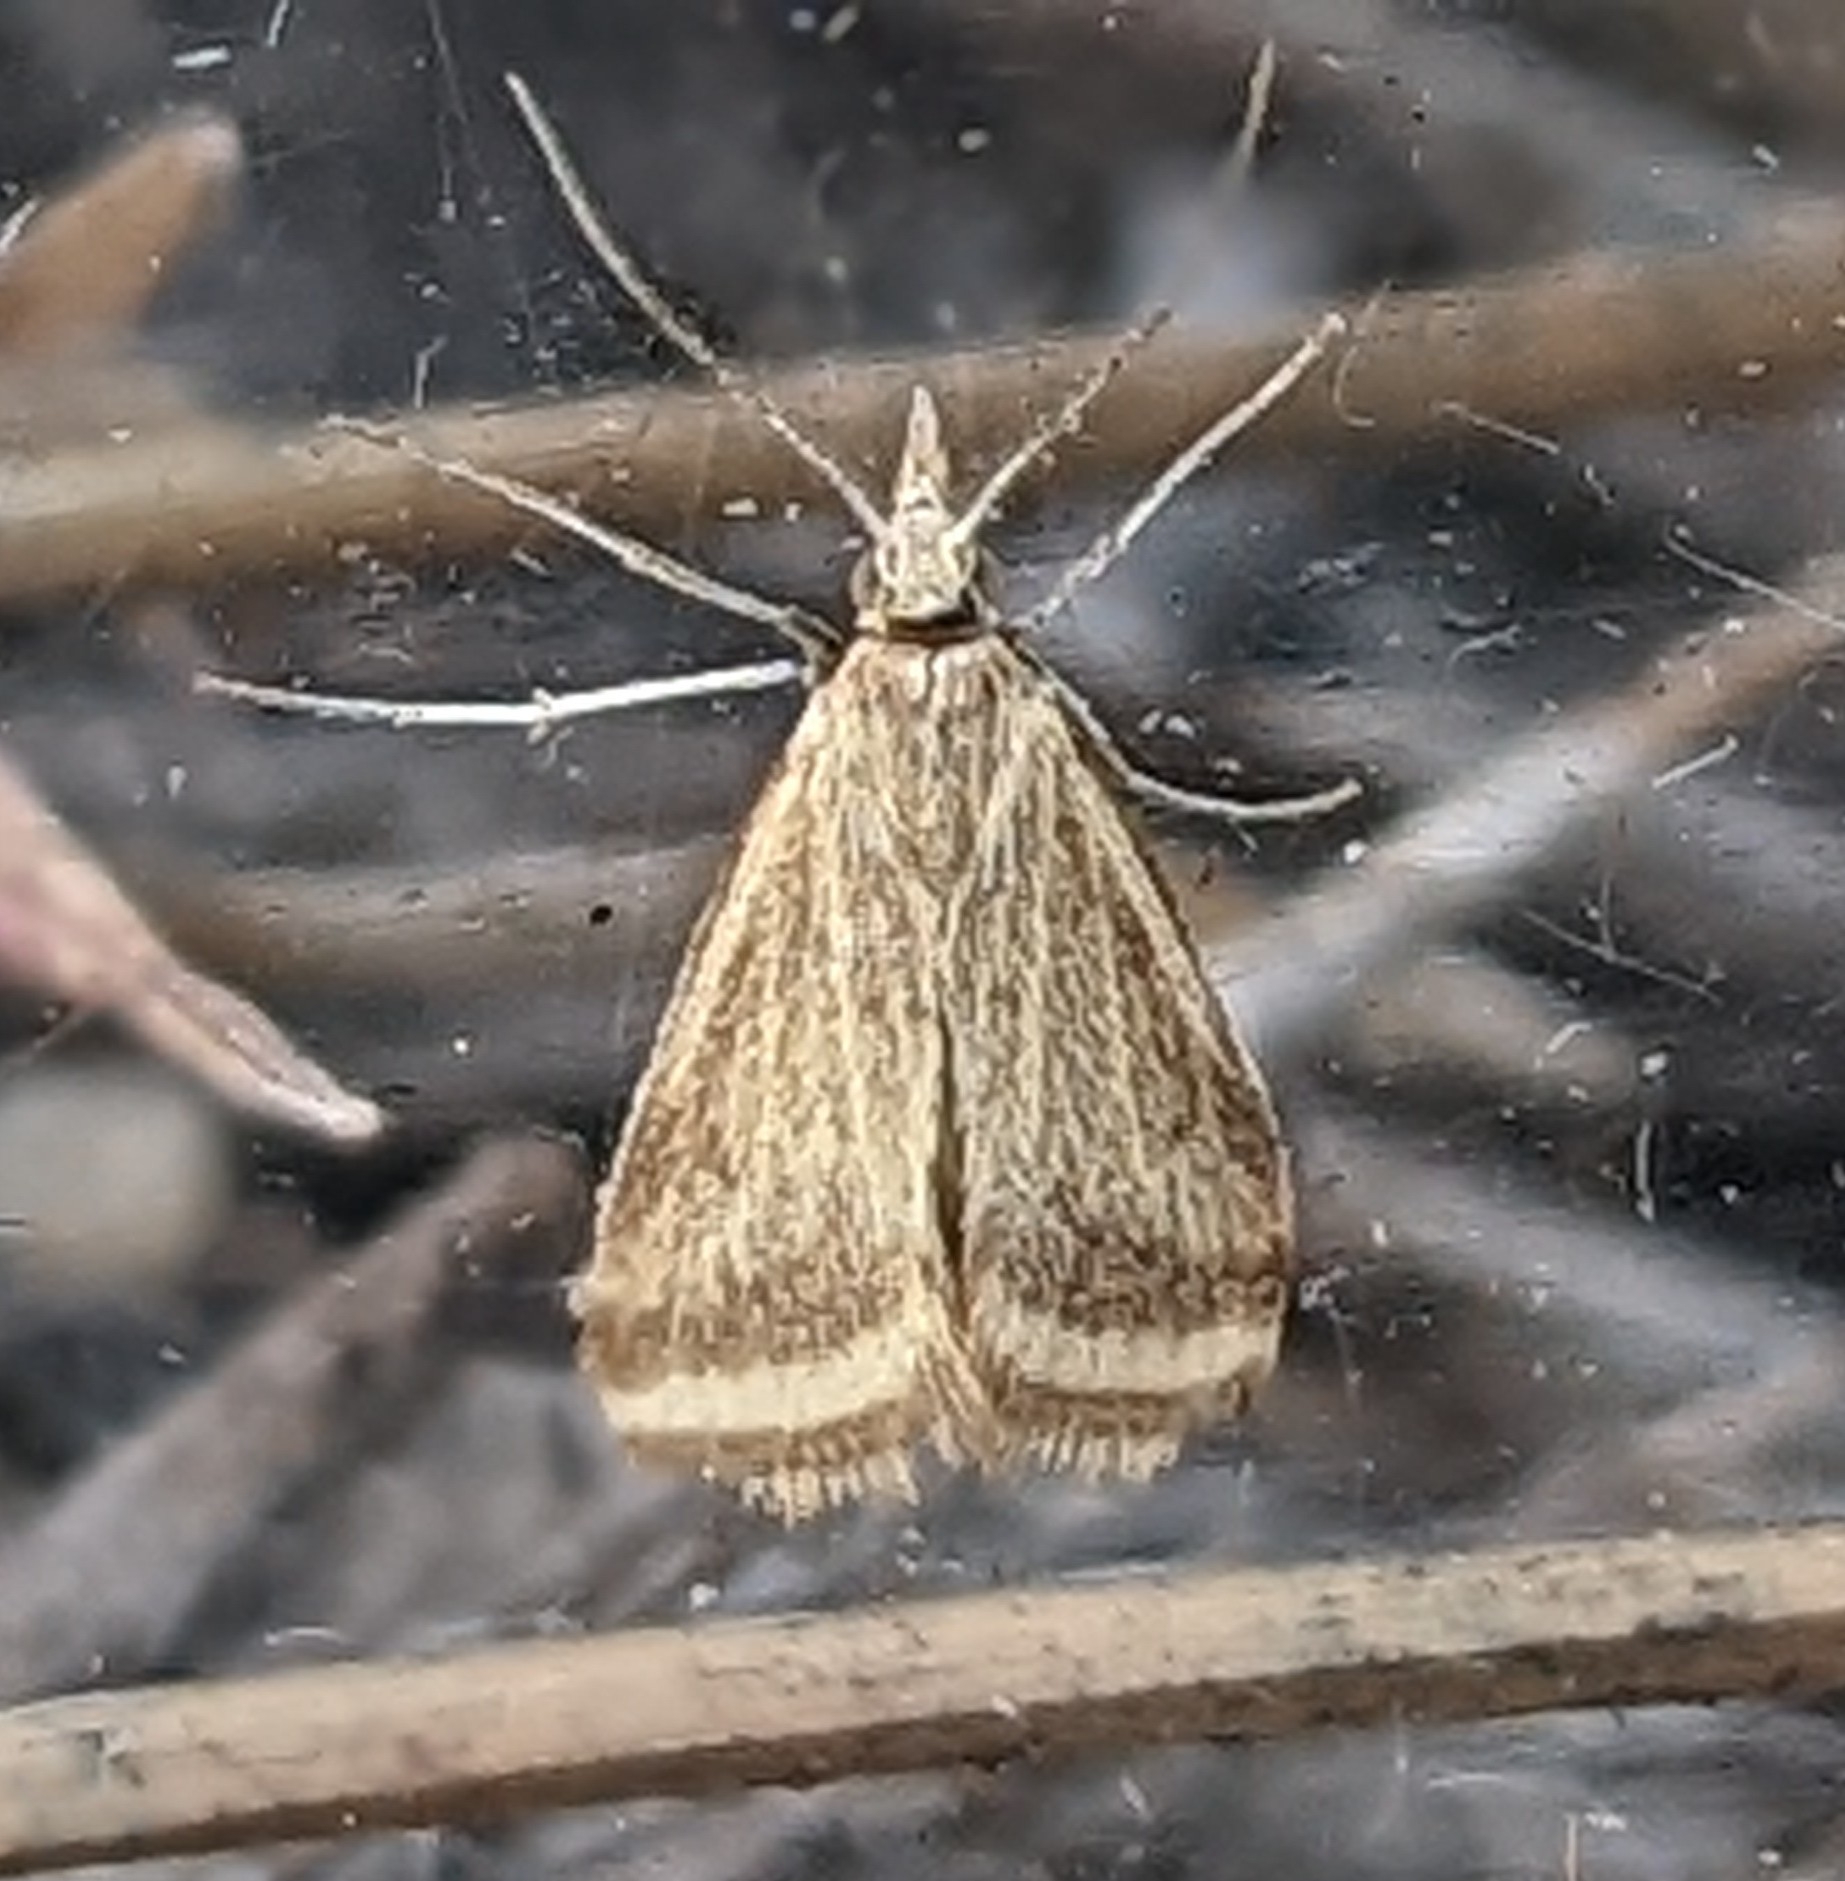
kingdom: Animalia
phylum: Arthropoda
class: Insecta
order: Lepidoptera
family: Crambidae
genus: Microtheoris
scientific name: Microtheoris ophionalis
